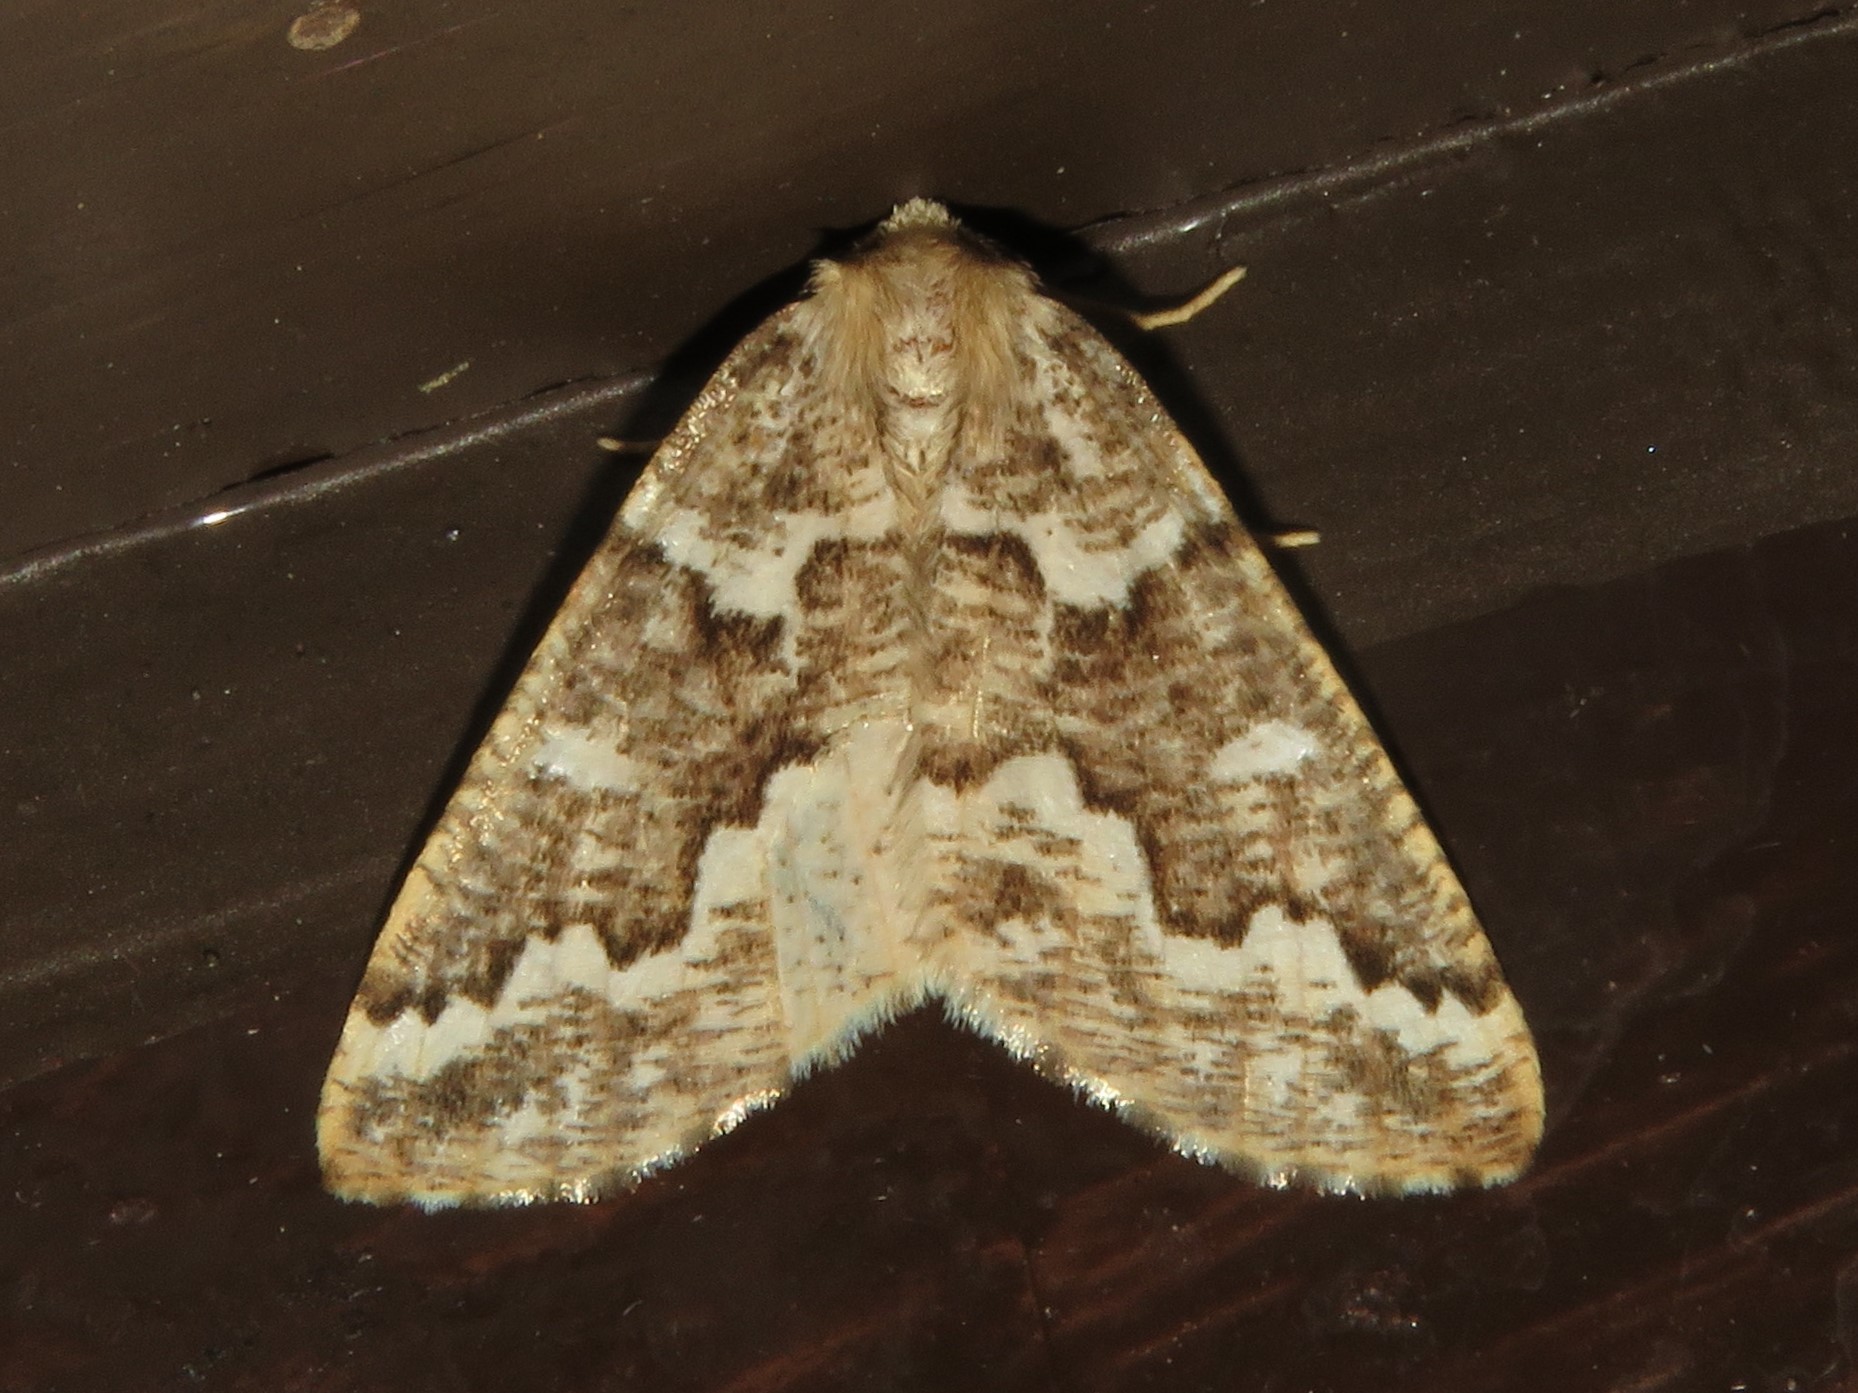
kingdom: Animalia
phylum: Arthropoda
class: Insecta
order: Lepidoptera
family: Geometridae
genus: Caripeta
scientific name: Caripeta divisata
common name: Gray spruce looper
